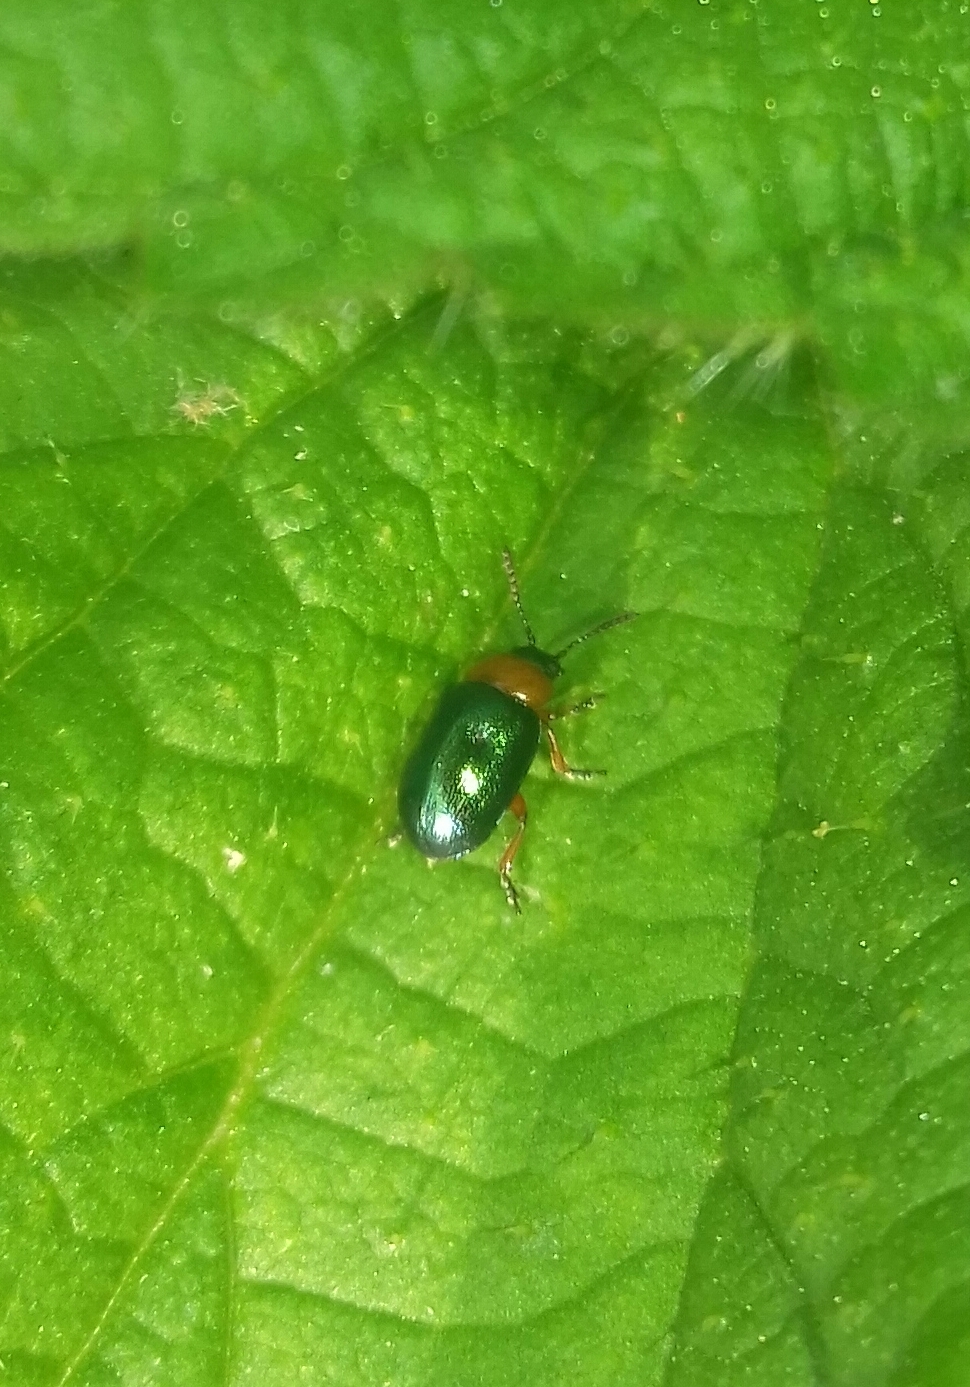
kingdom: Animalia
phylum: Arthropoda
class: Insecta
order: Coleoptera
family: Chrysomelidae
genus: Gastrophysa
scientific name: Gastrophysa polygoni
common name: Knotweed leaf beetle
